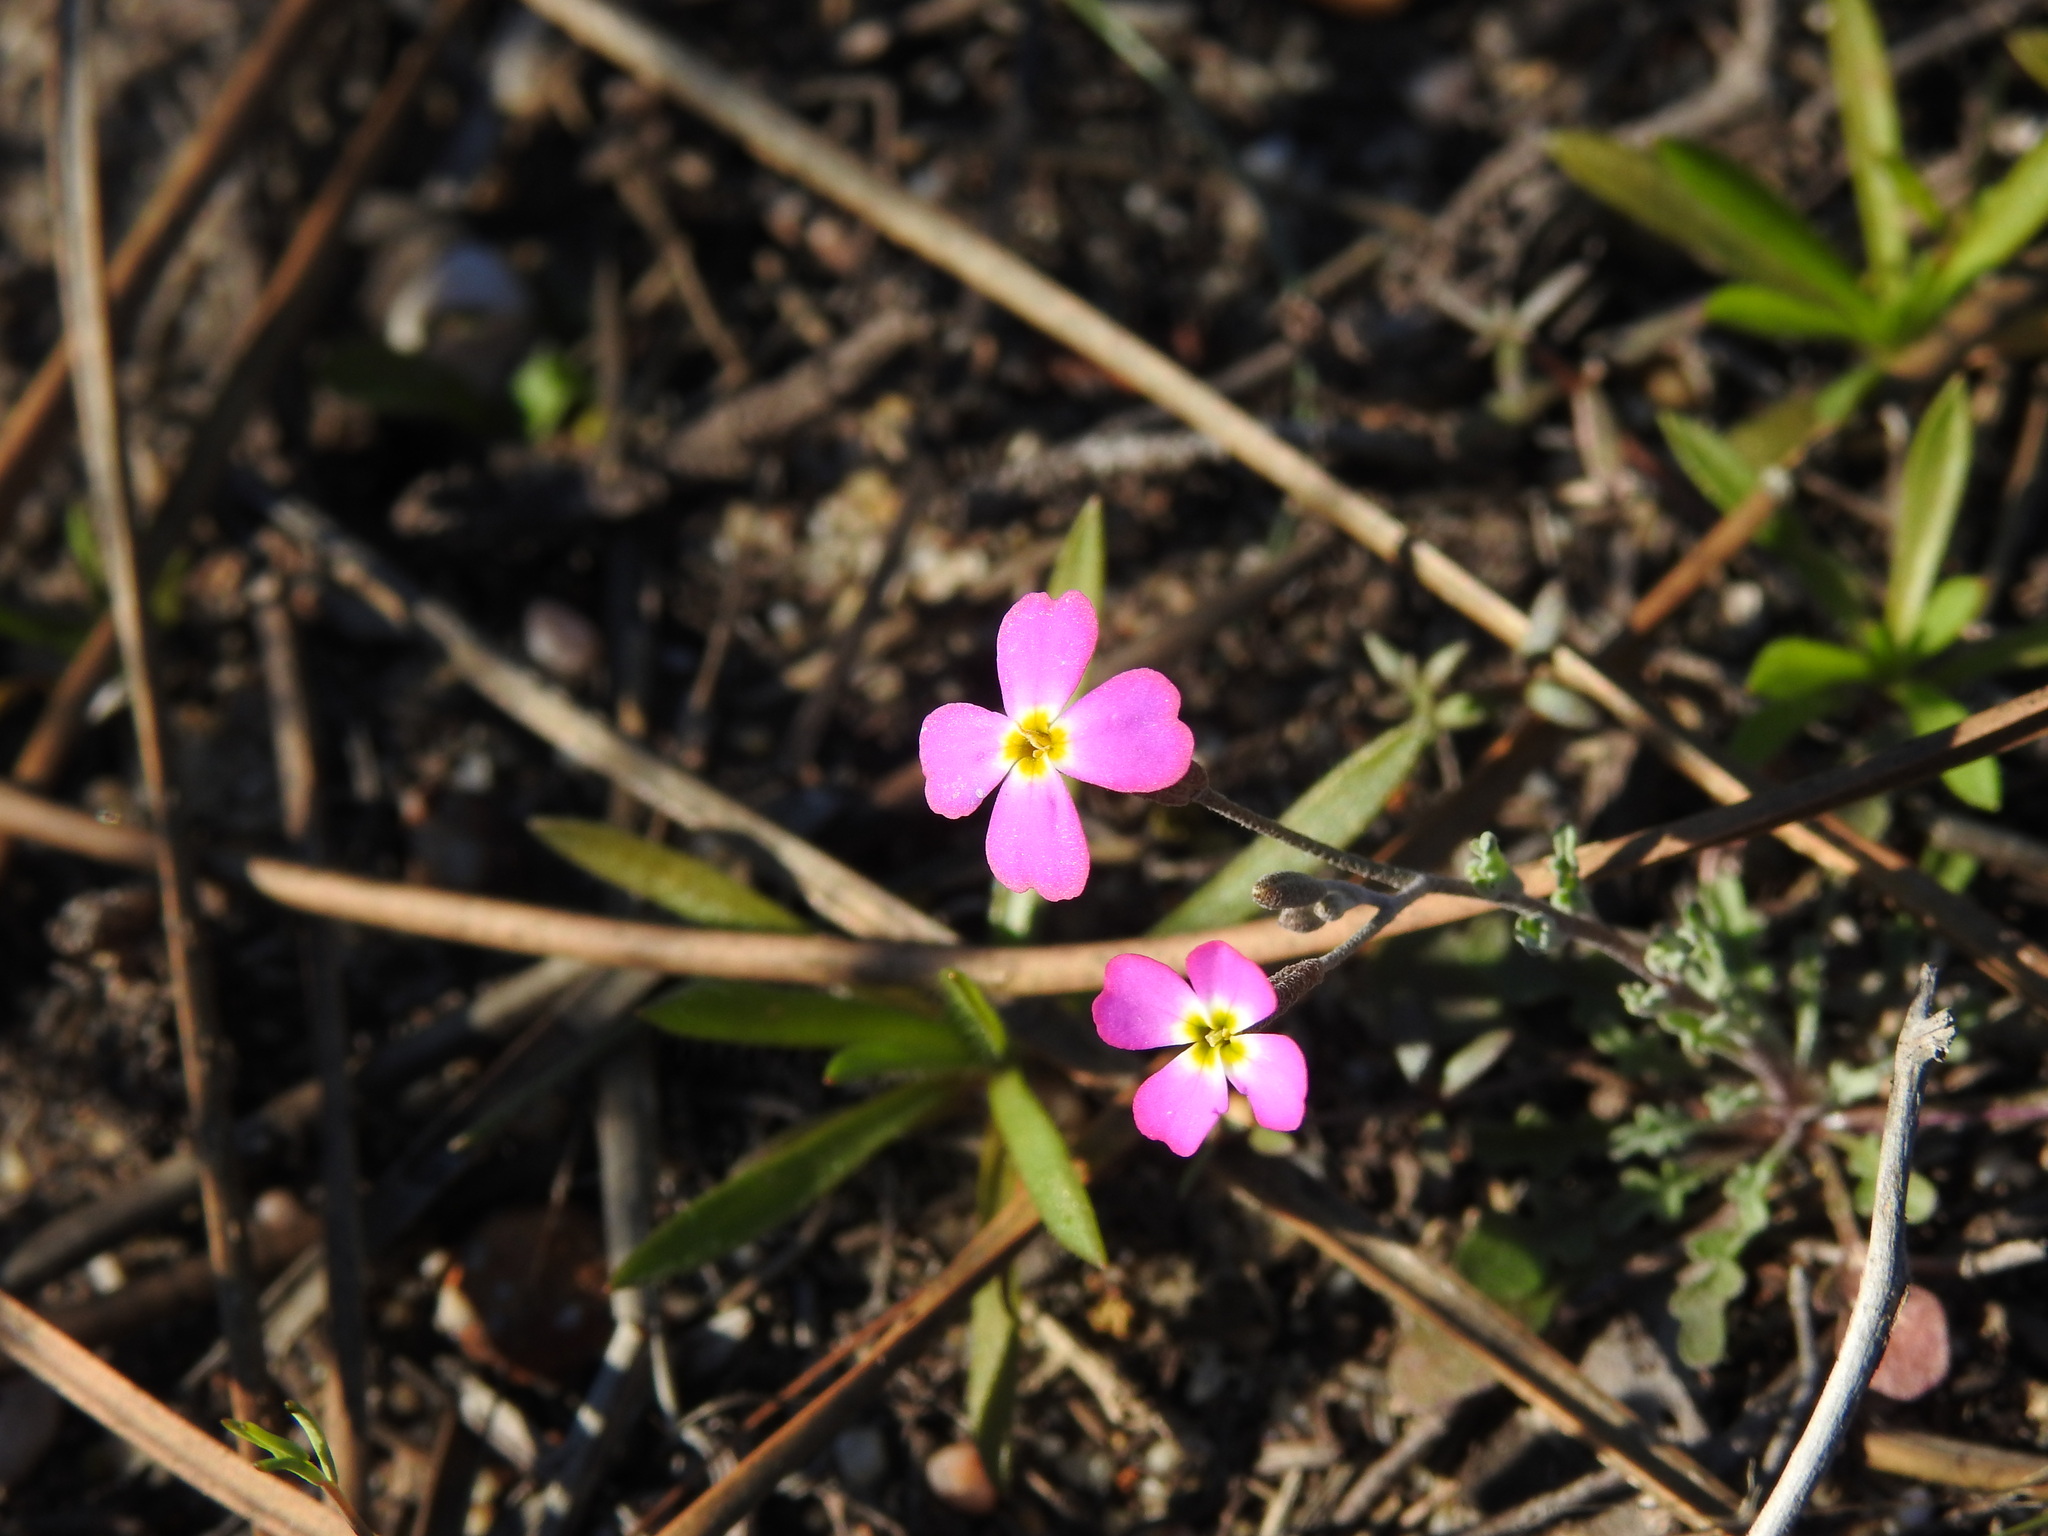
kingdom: Plantae
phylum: Tracheophyta
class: Magnoliopsida
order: Brassicales
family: Brassicaceae
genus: Marcuskochia
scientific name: Marcuskochia triloba
